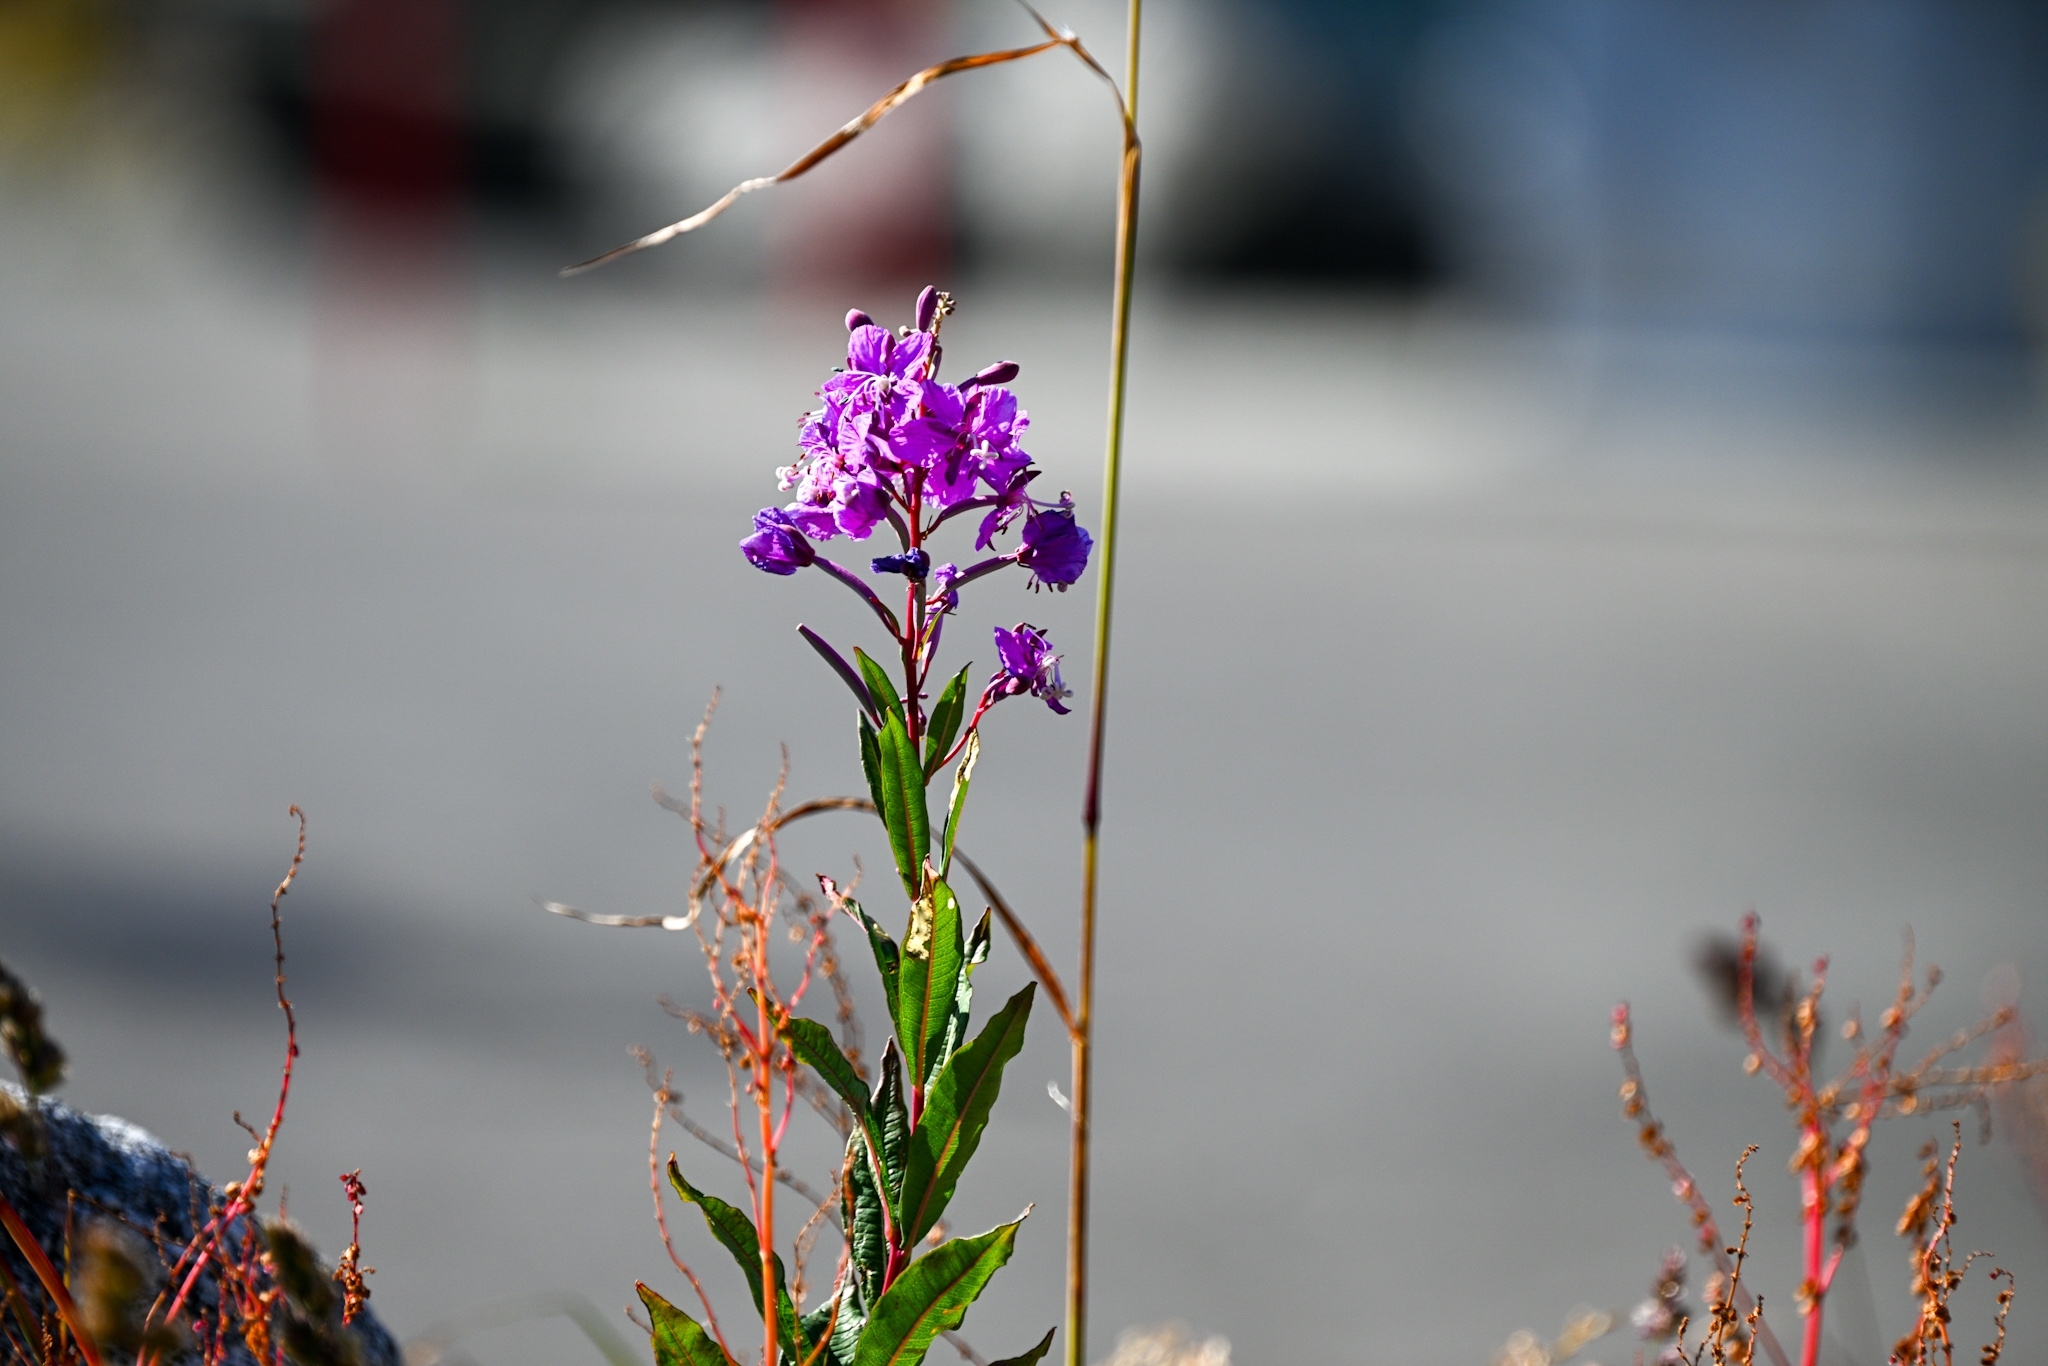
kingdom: Plantae
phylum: Tracheophyta
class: Magnoliopsida
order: Myrtales
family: Onagraceae
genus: Chamaenerion
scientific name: Chamaenerion angustifolium
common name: Fireweed
